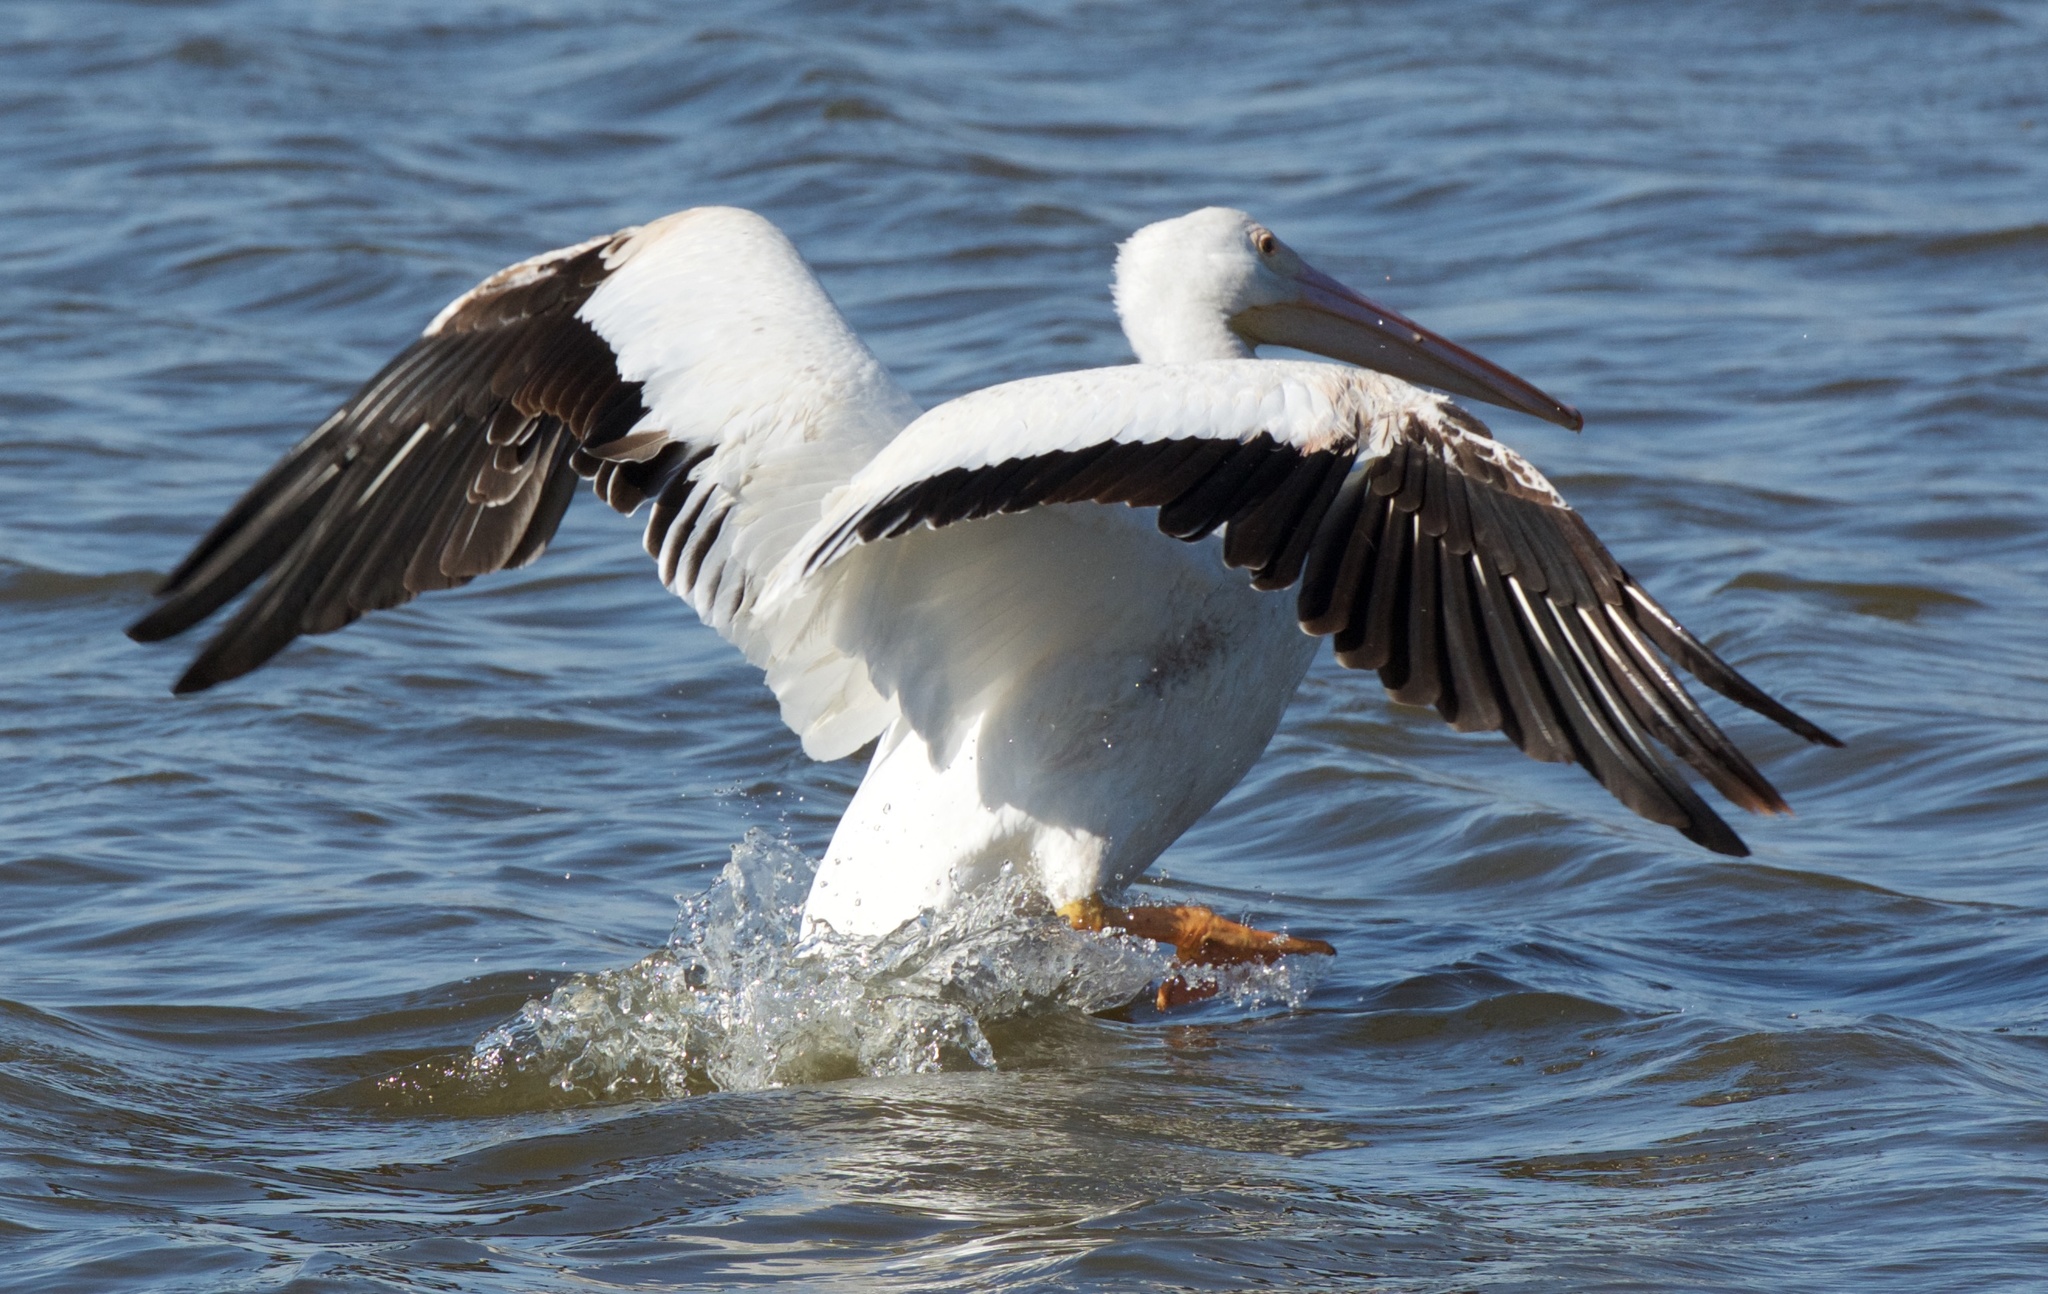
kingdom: Animalia
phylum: Chordata
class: Aves
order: Pelecaniformes
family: Pelecanidae
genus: Pelecanus
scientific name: Pelecanus erythrorhynchos
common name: American white pelican
